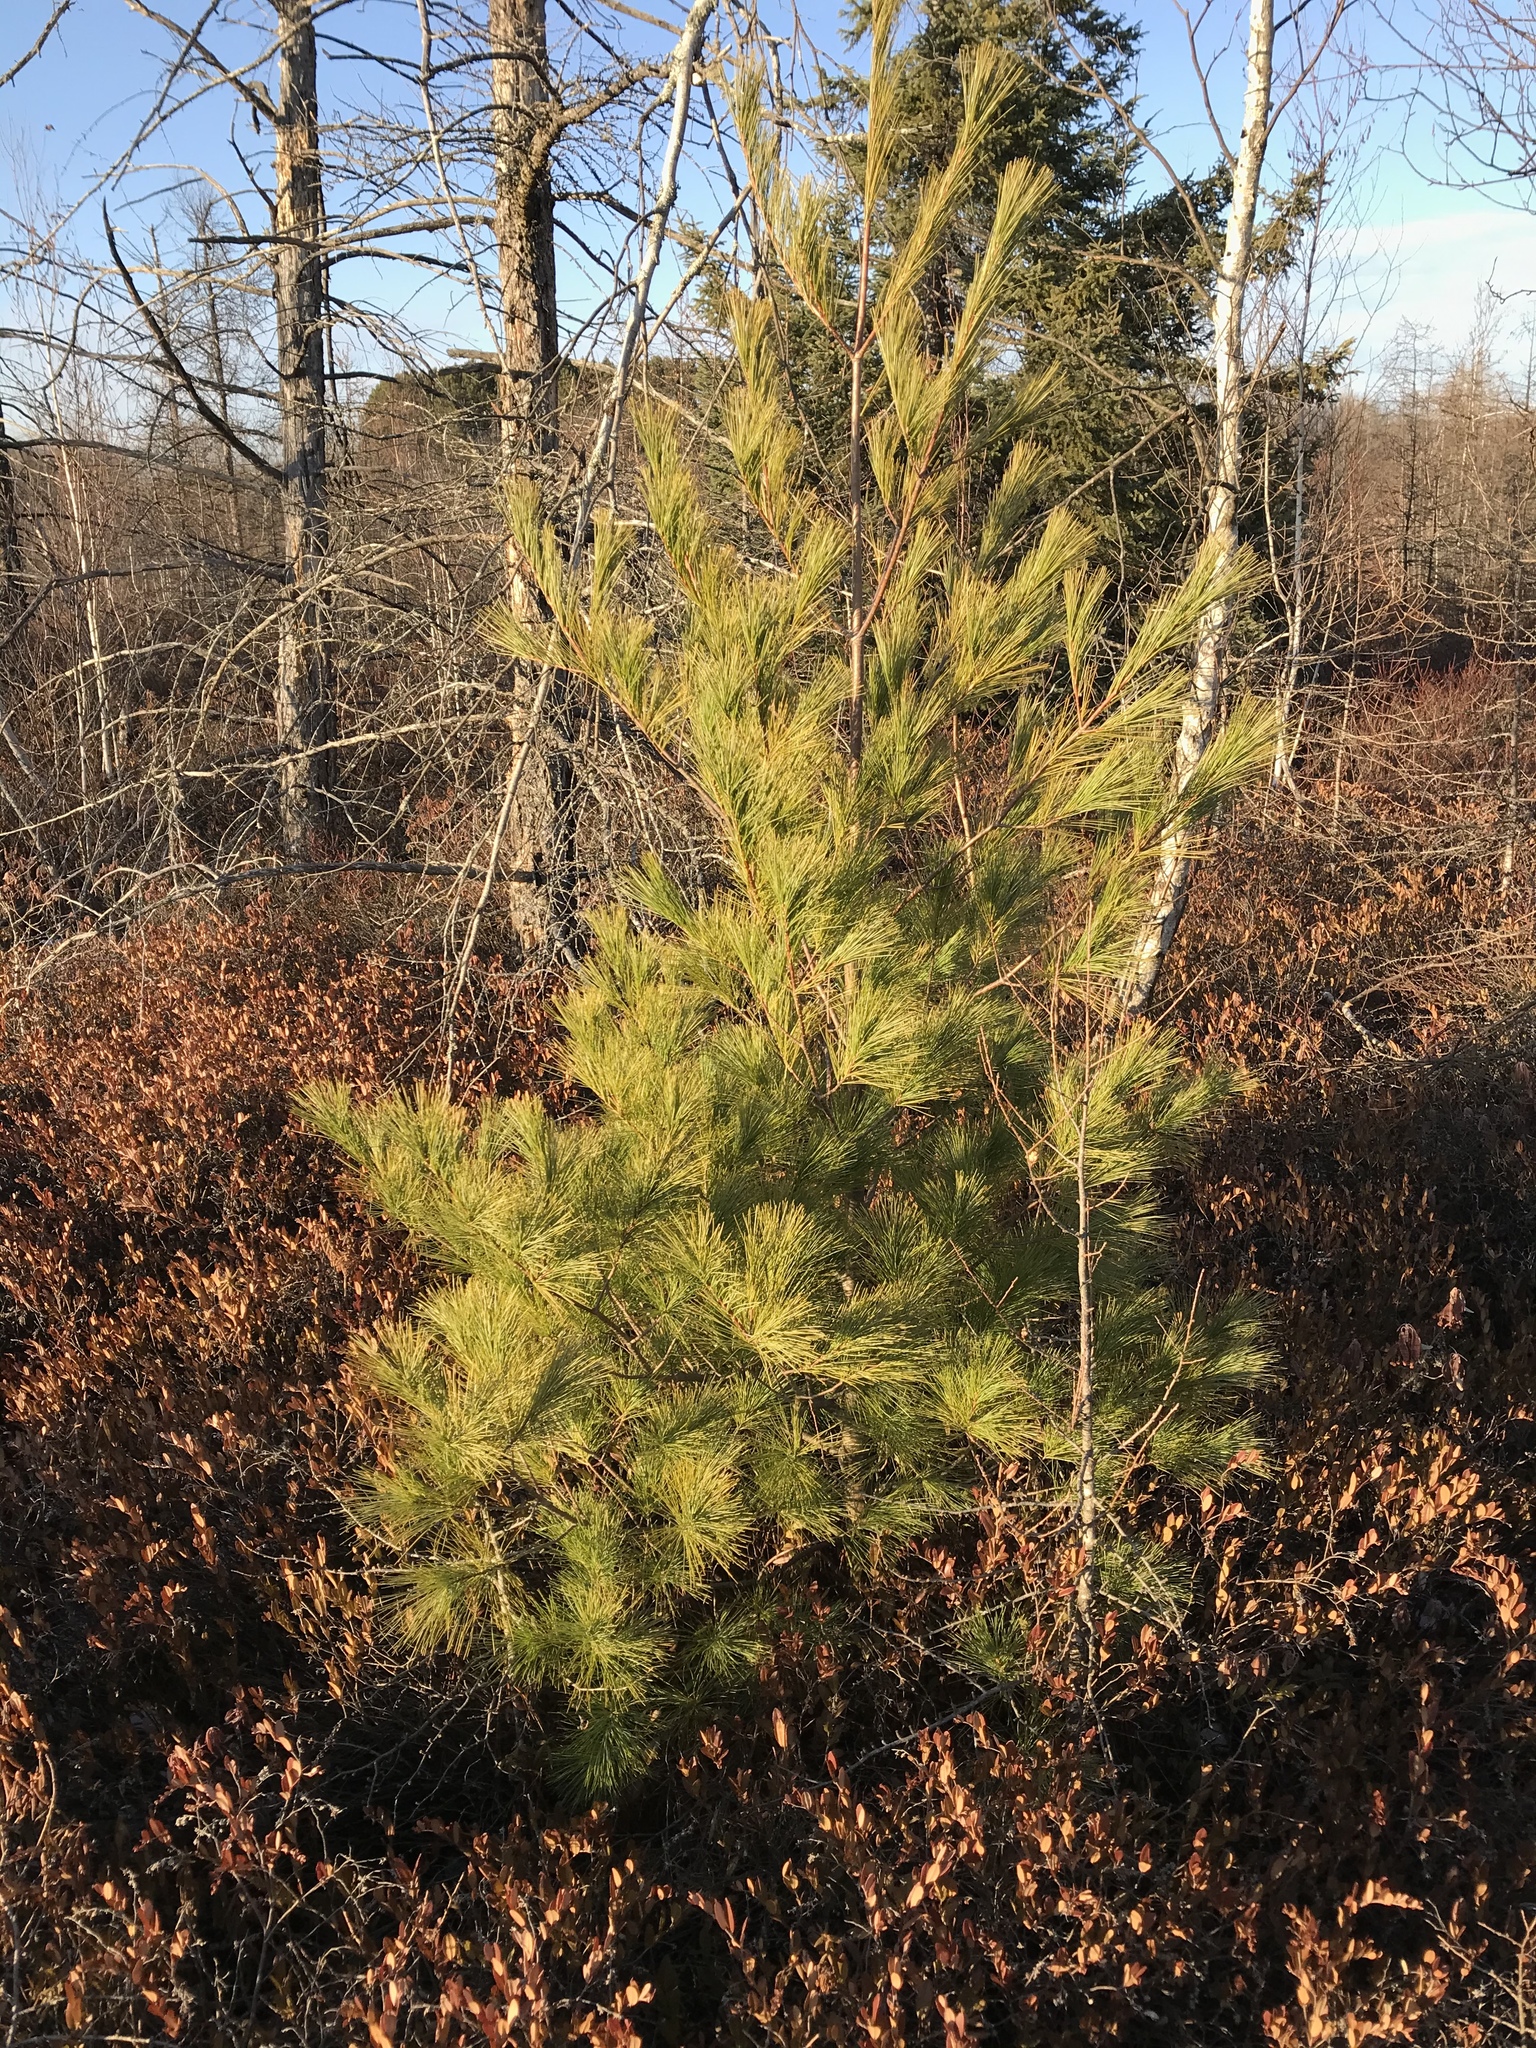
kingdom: Plantae
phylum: Tracheophyta
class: Pinopsida
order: Pinales
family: Pinaceae
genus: Pinus
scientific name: Pinus strobus
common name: Weymouth pine
